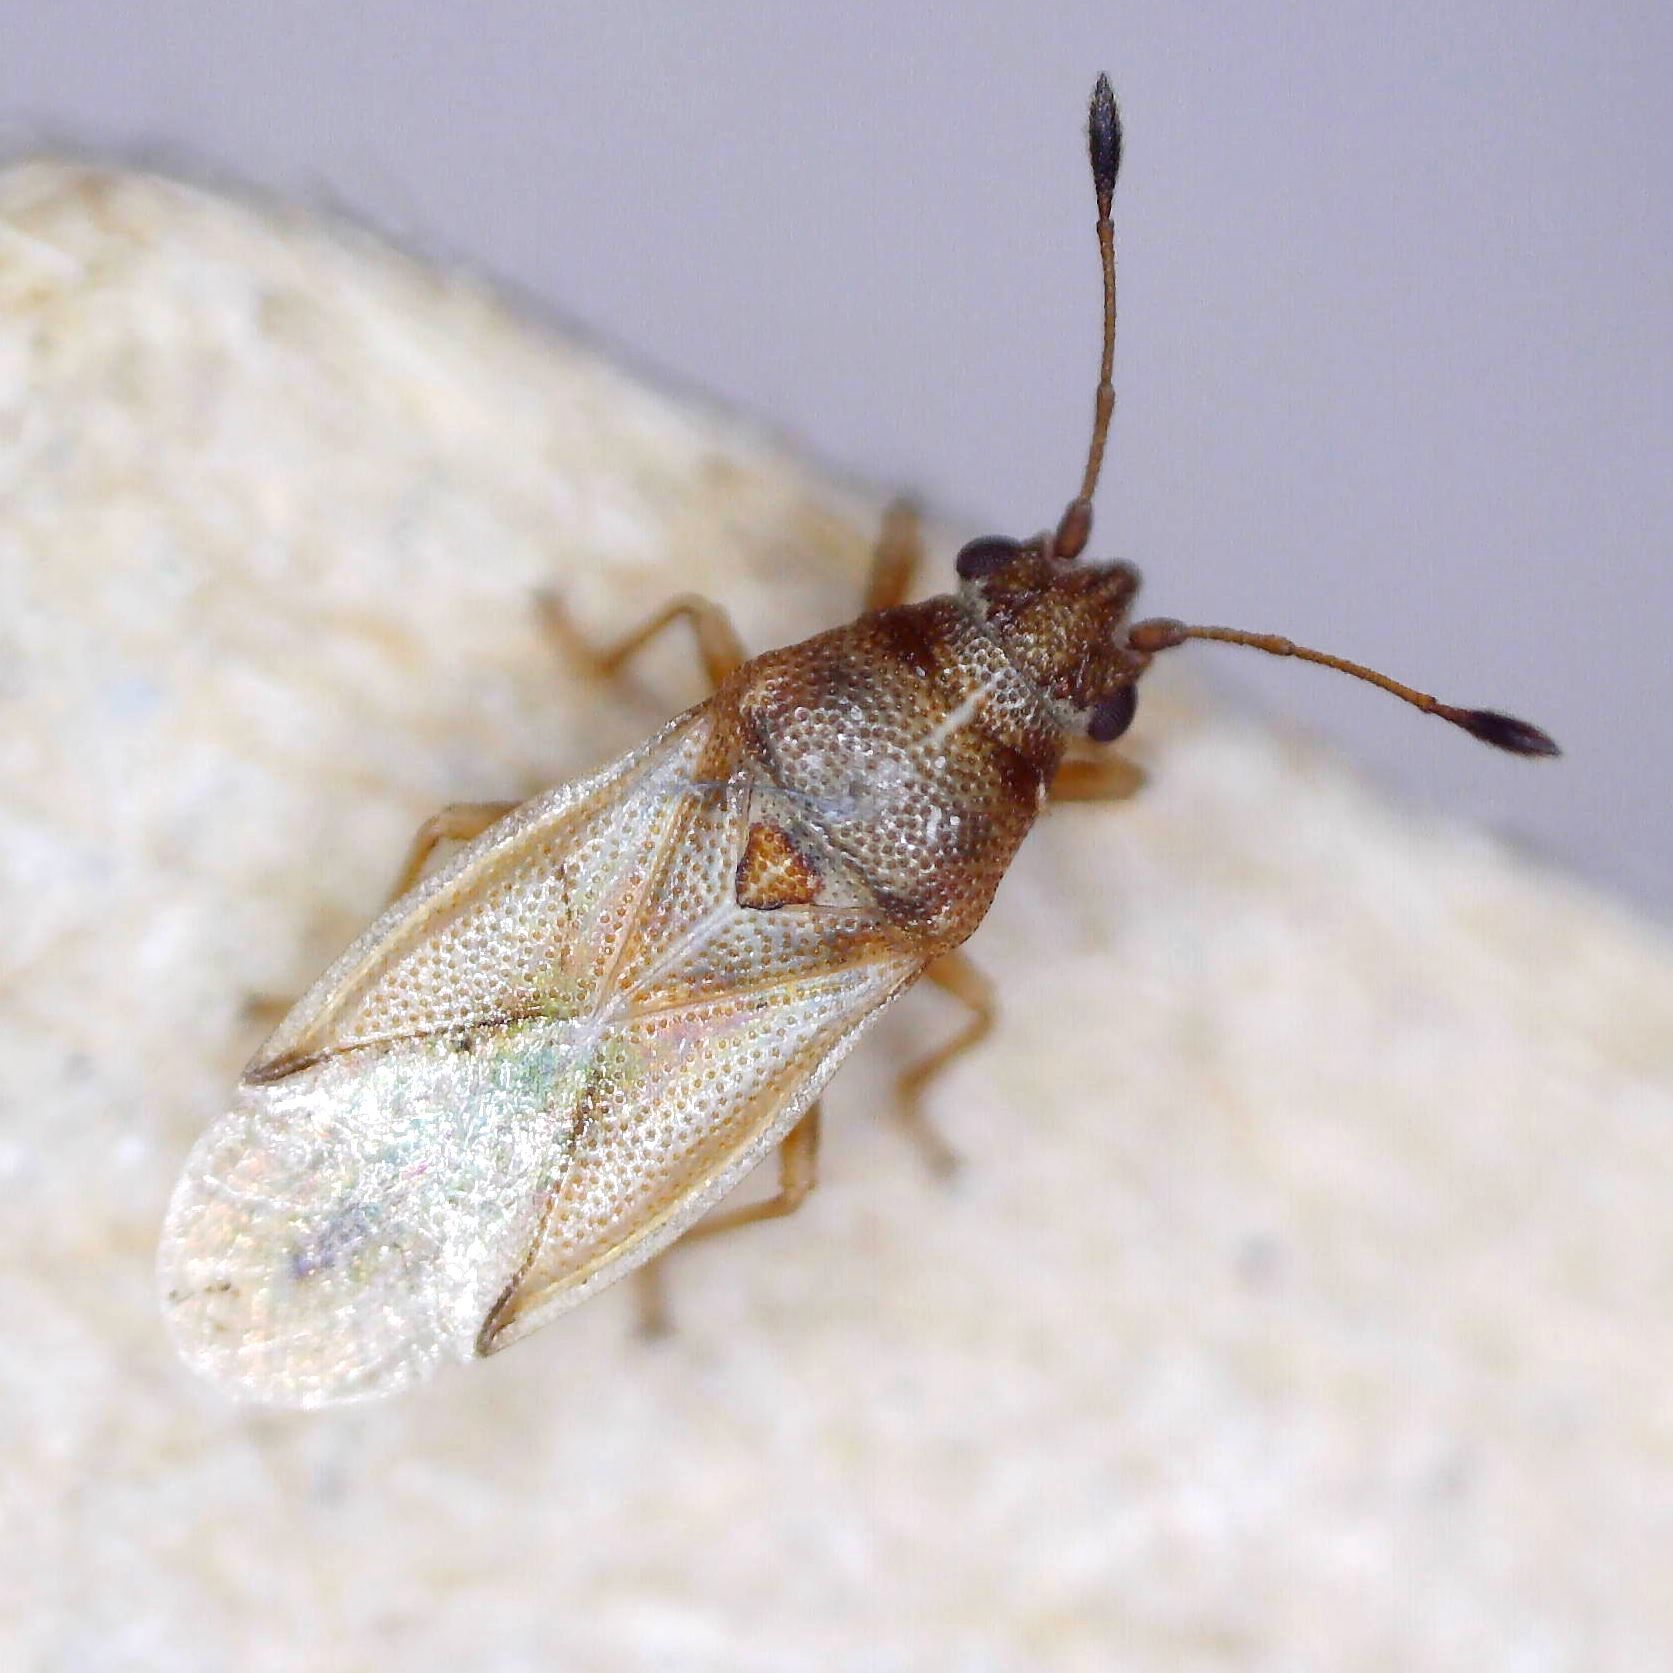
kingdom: Animalia
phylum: Arthropoda
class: Insecta
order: Hemiptera
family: Cymidae
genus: Cymus
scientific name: Cymus claviculus
